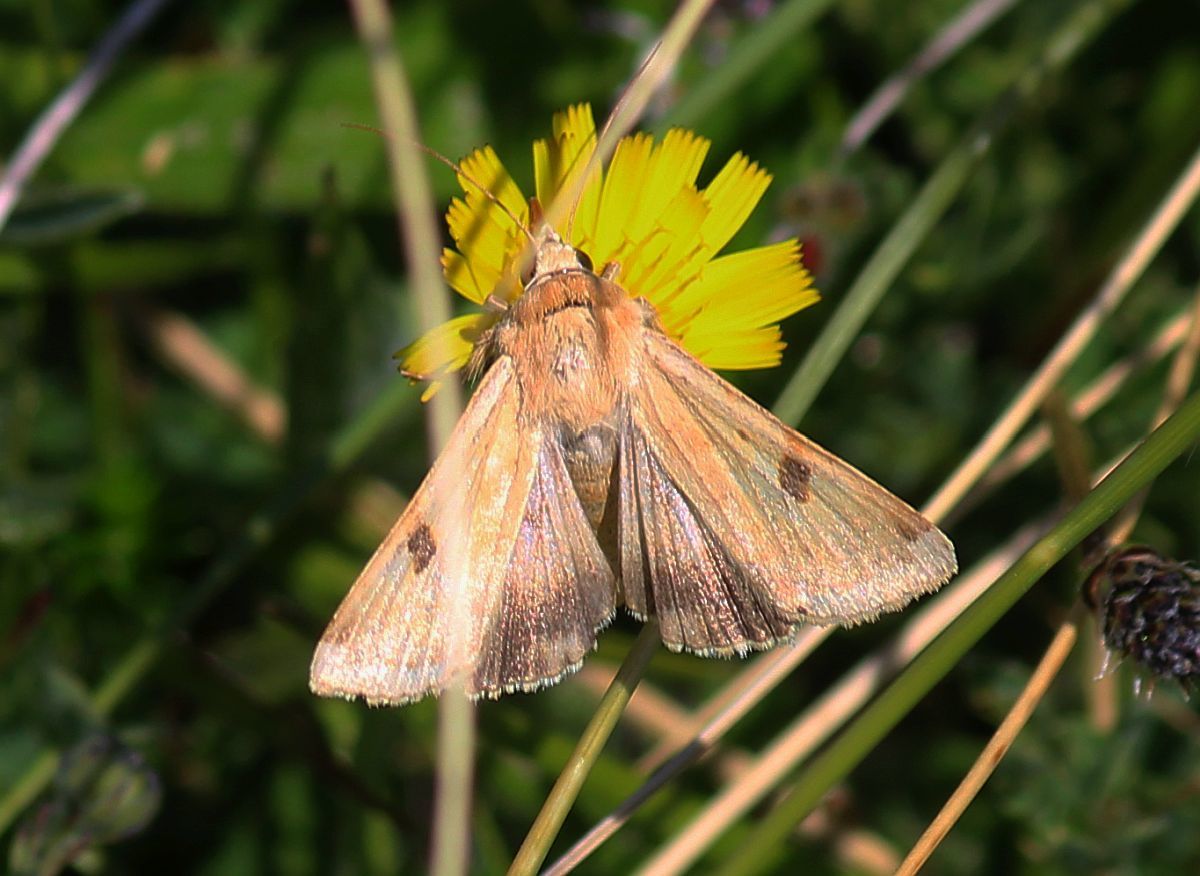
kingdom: Animalia
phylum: Arthropoda
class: Insecta
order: Lepidoptera
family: Noctuidae
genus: Heliothis
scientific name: Heliothis peltigera
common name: Bordered straw
